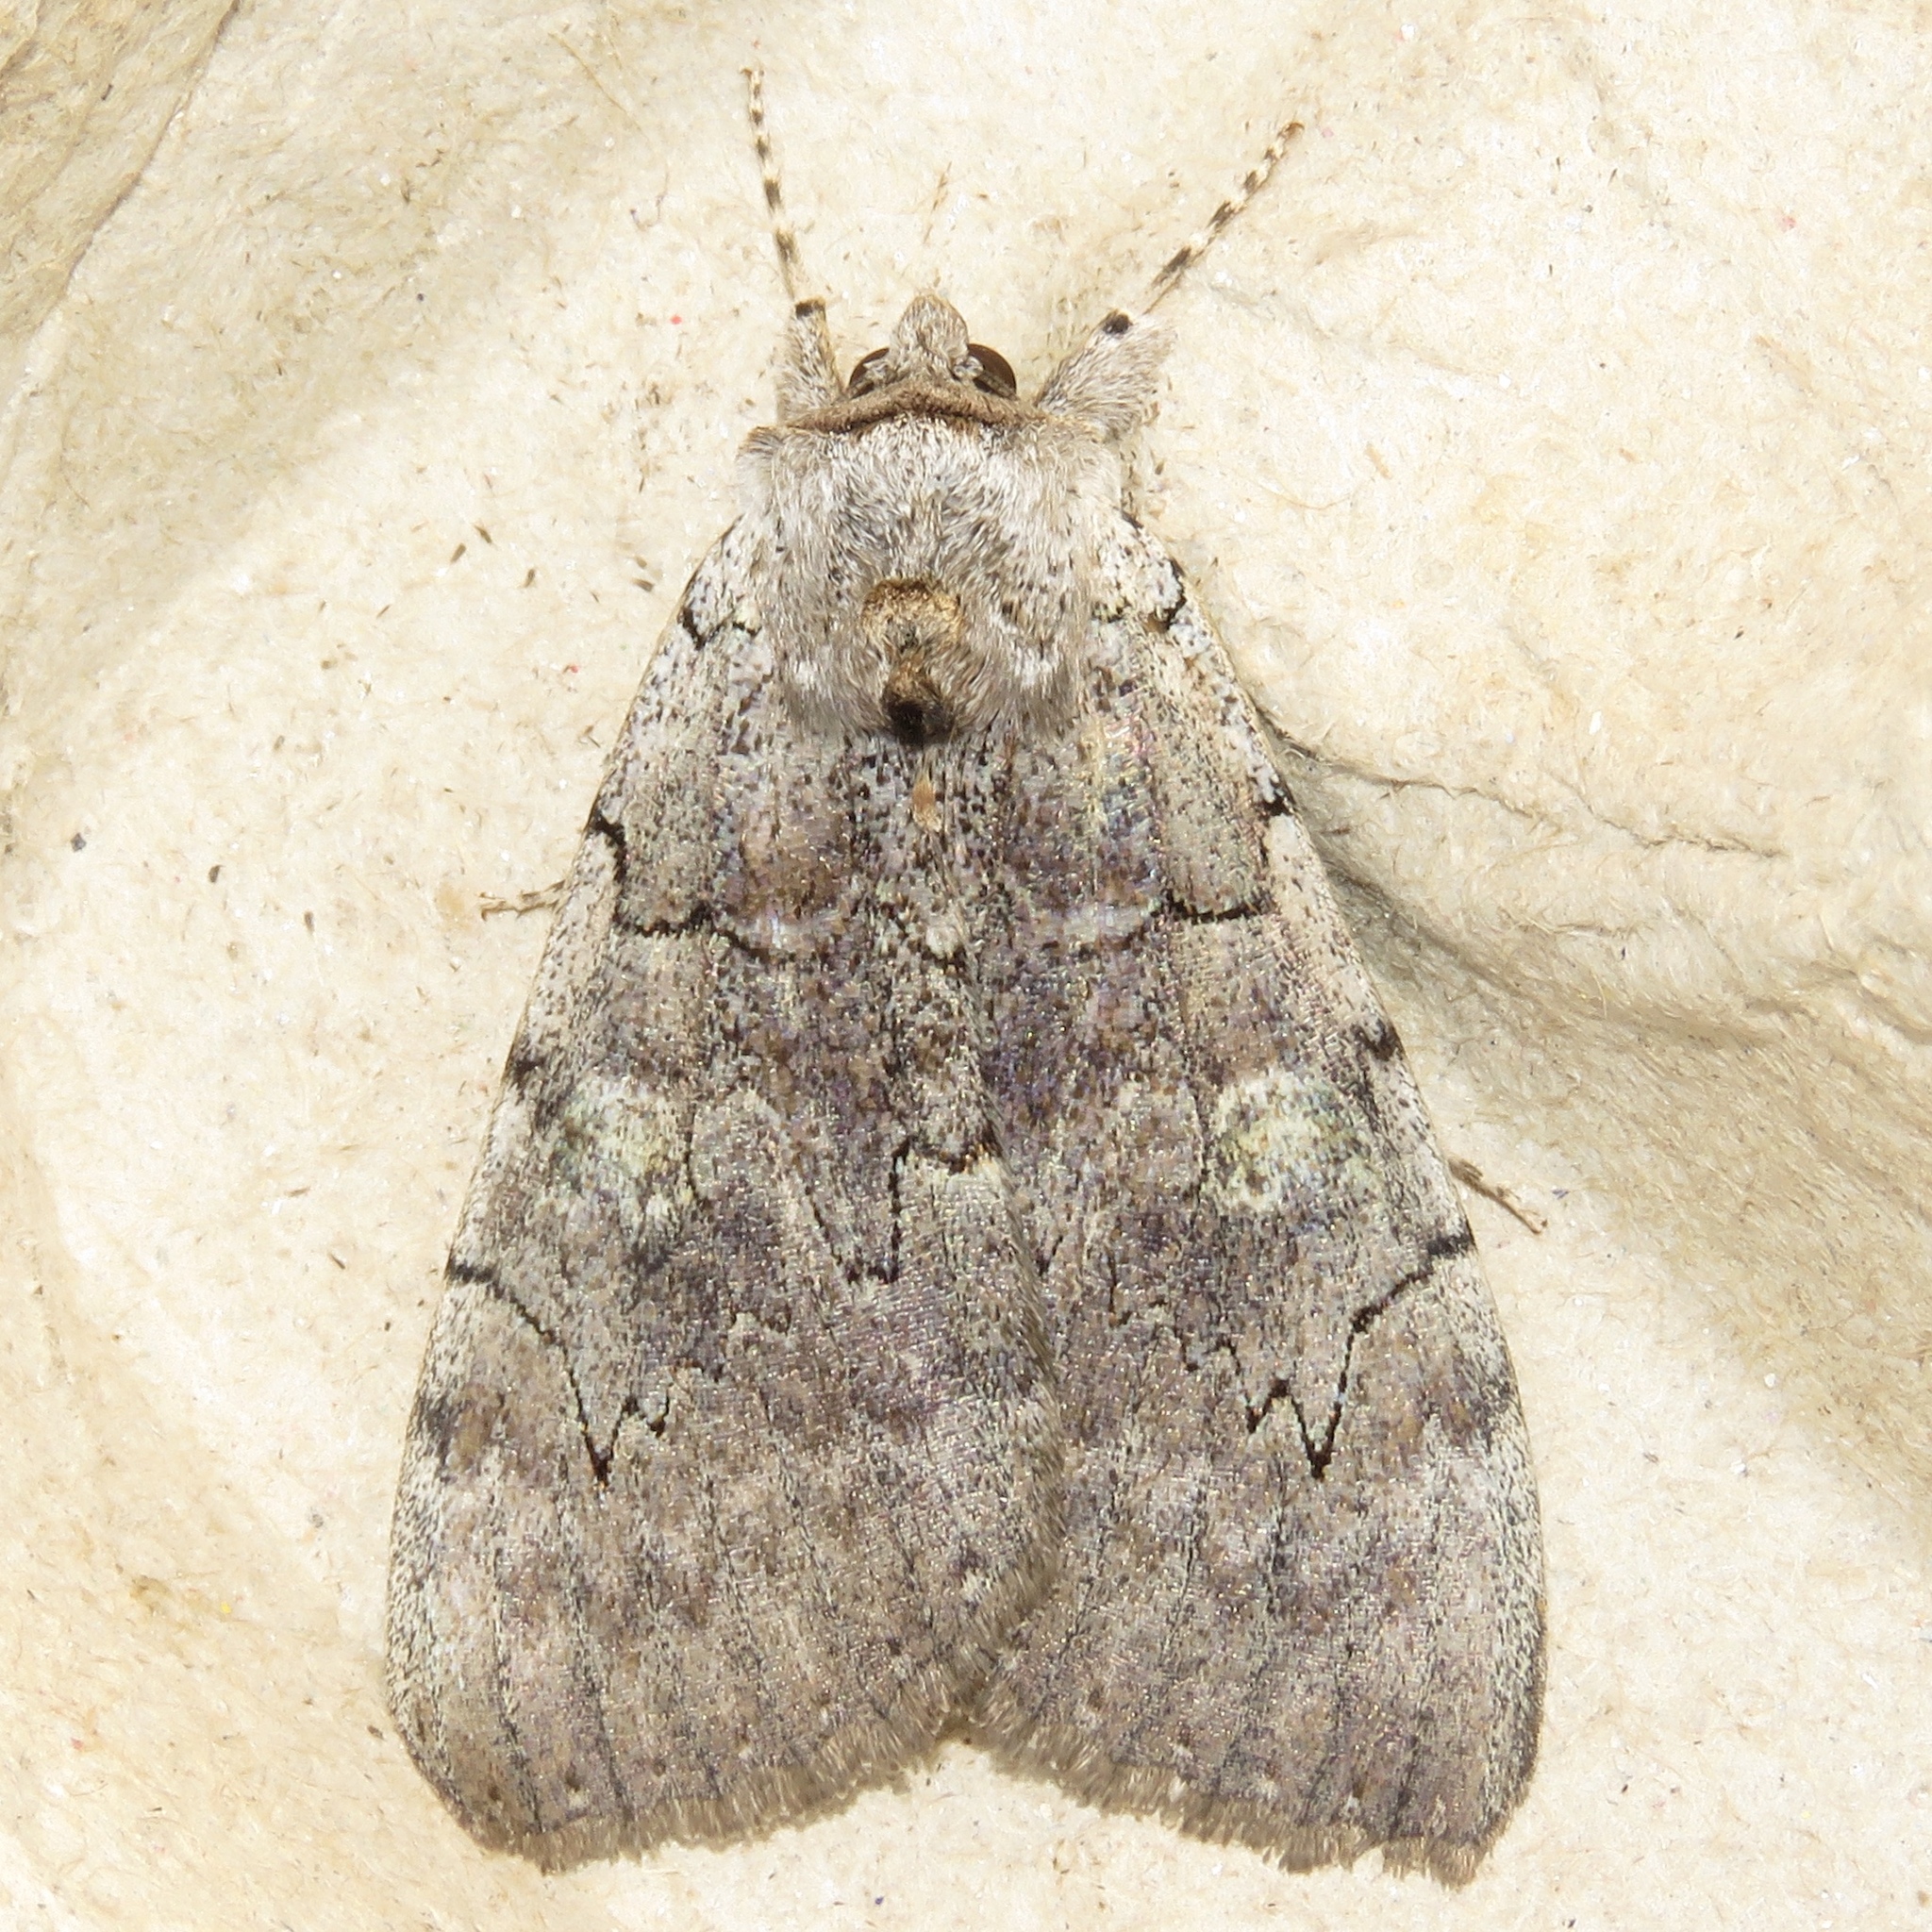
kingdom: Animalia
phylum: Arthropoda
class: Insecta
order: Lepidoptera
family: Erebidae
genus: Catocala
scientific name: Catocala concumbens
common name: Pink underwing
